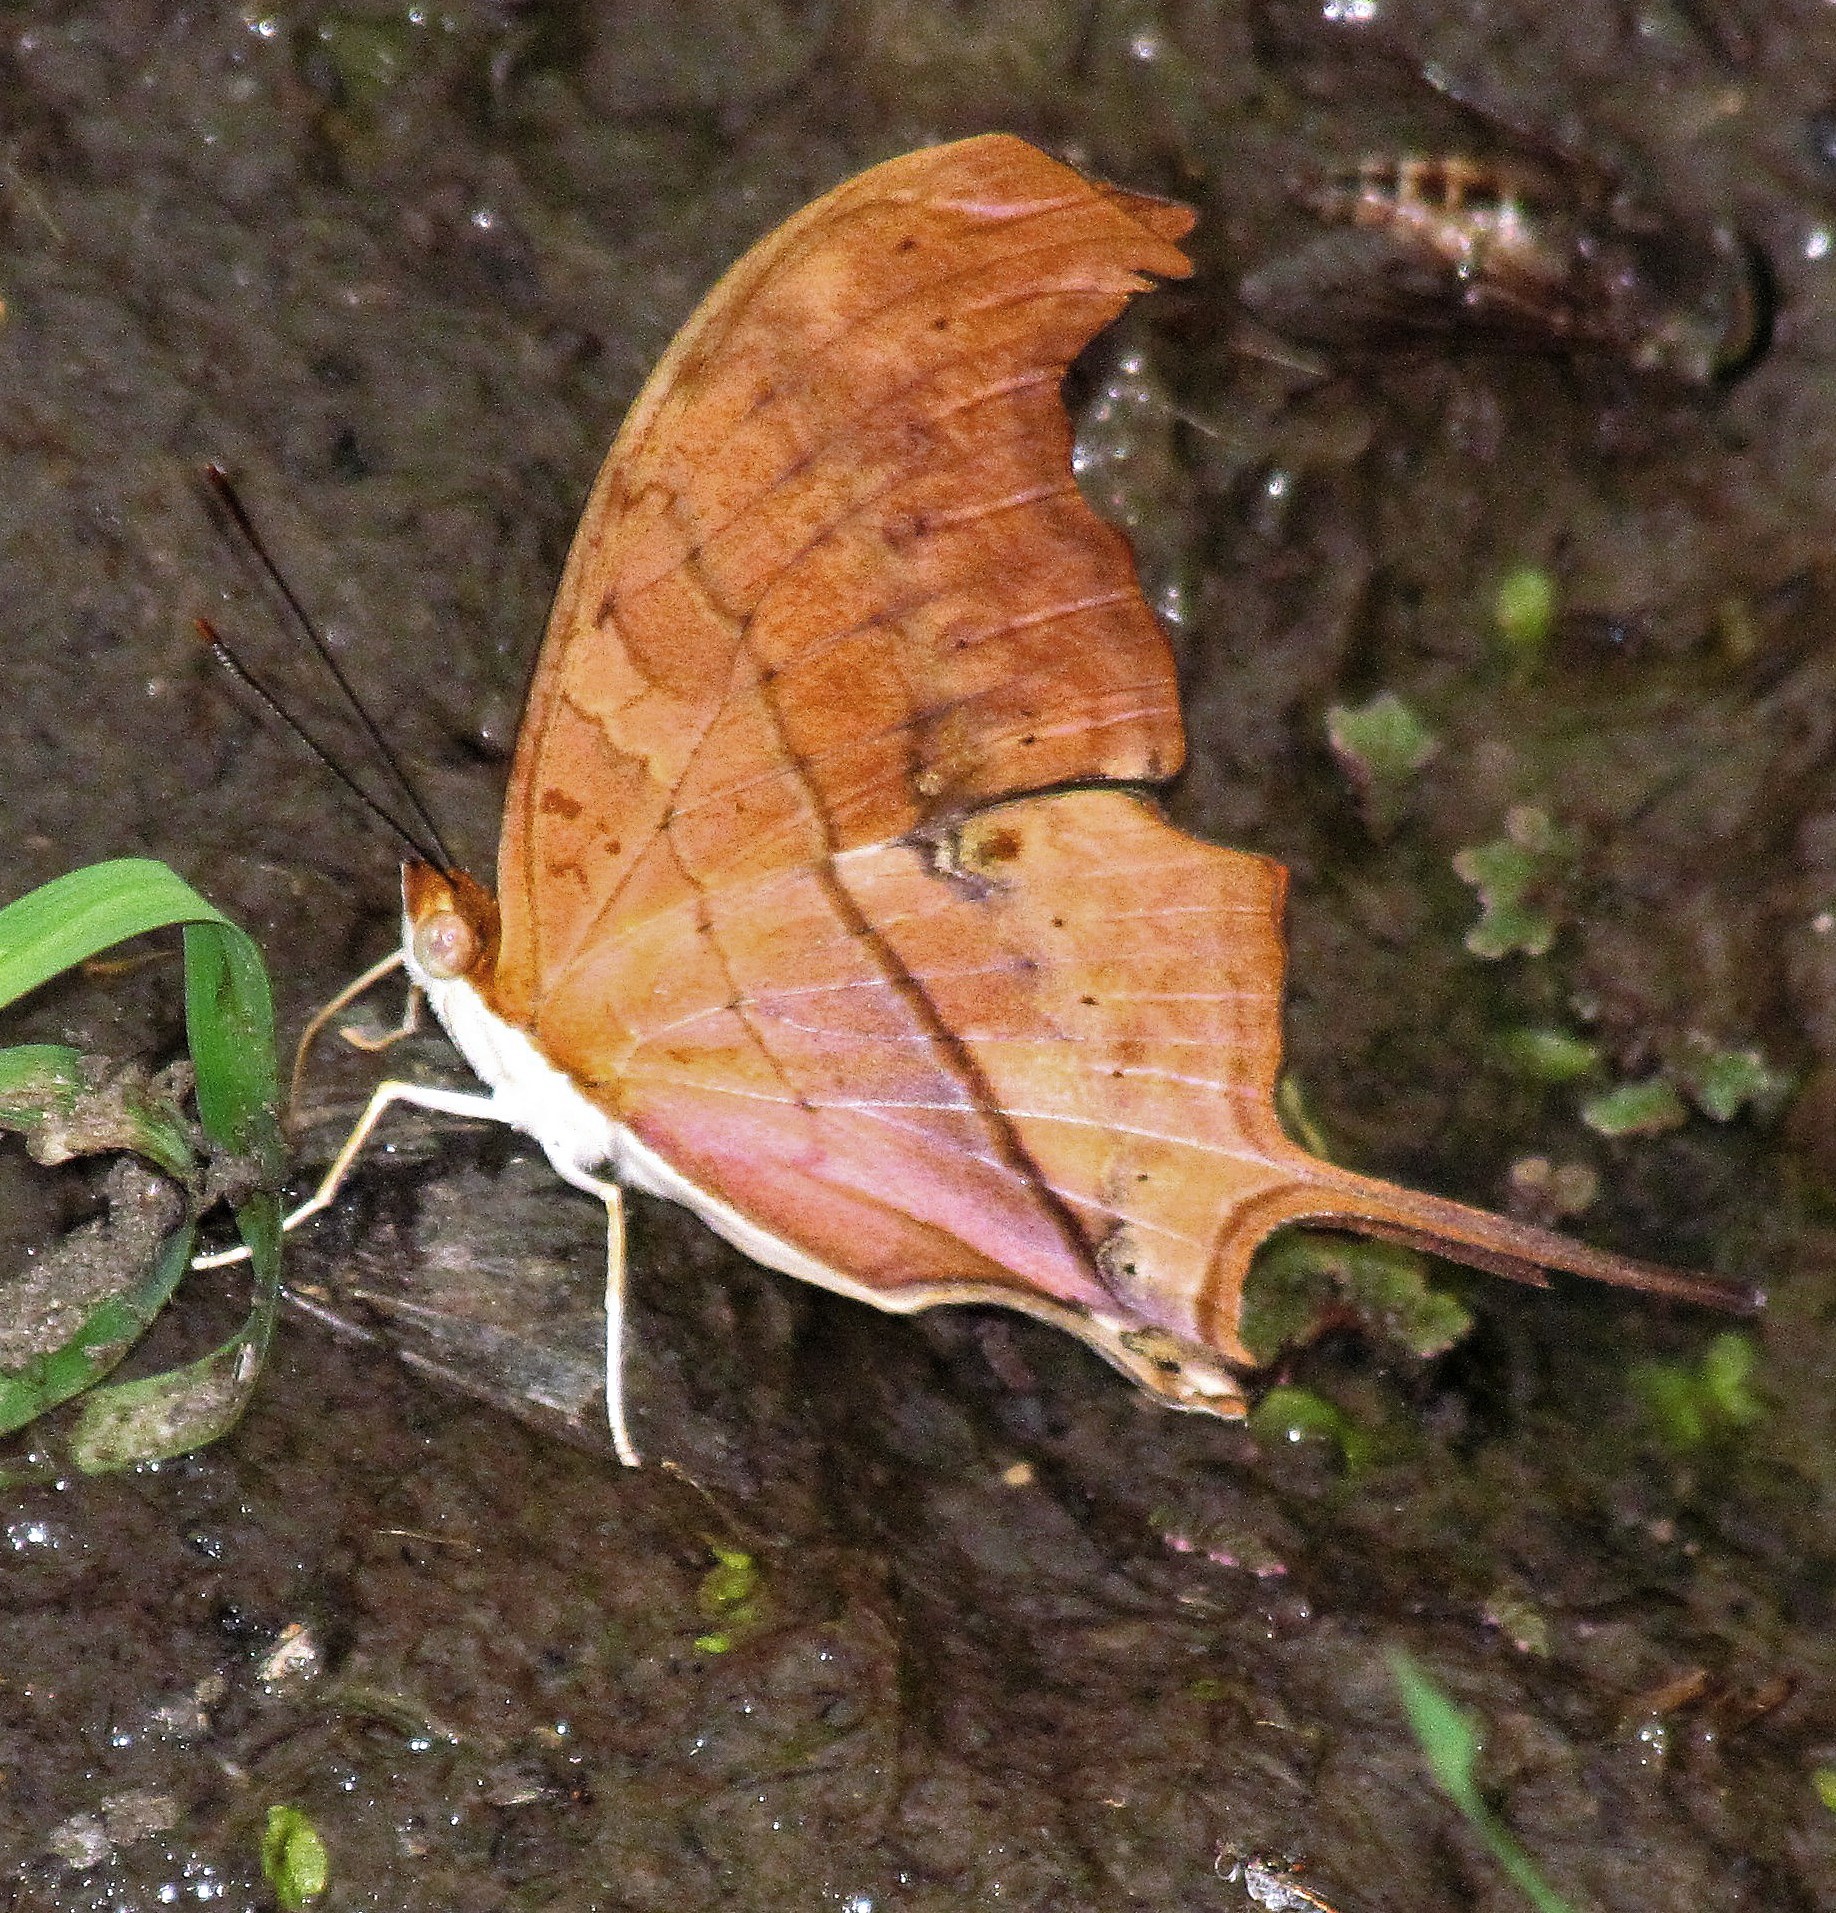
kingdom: Animalia
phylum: Arthropoda
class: Insecta
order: Lepidoptera
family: Nymphalidae
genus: Marpesia
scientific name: Marpesia petreus
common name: Red dagger wing
